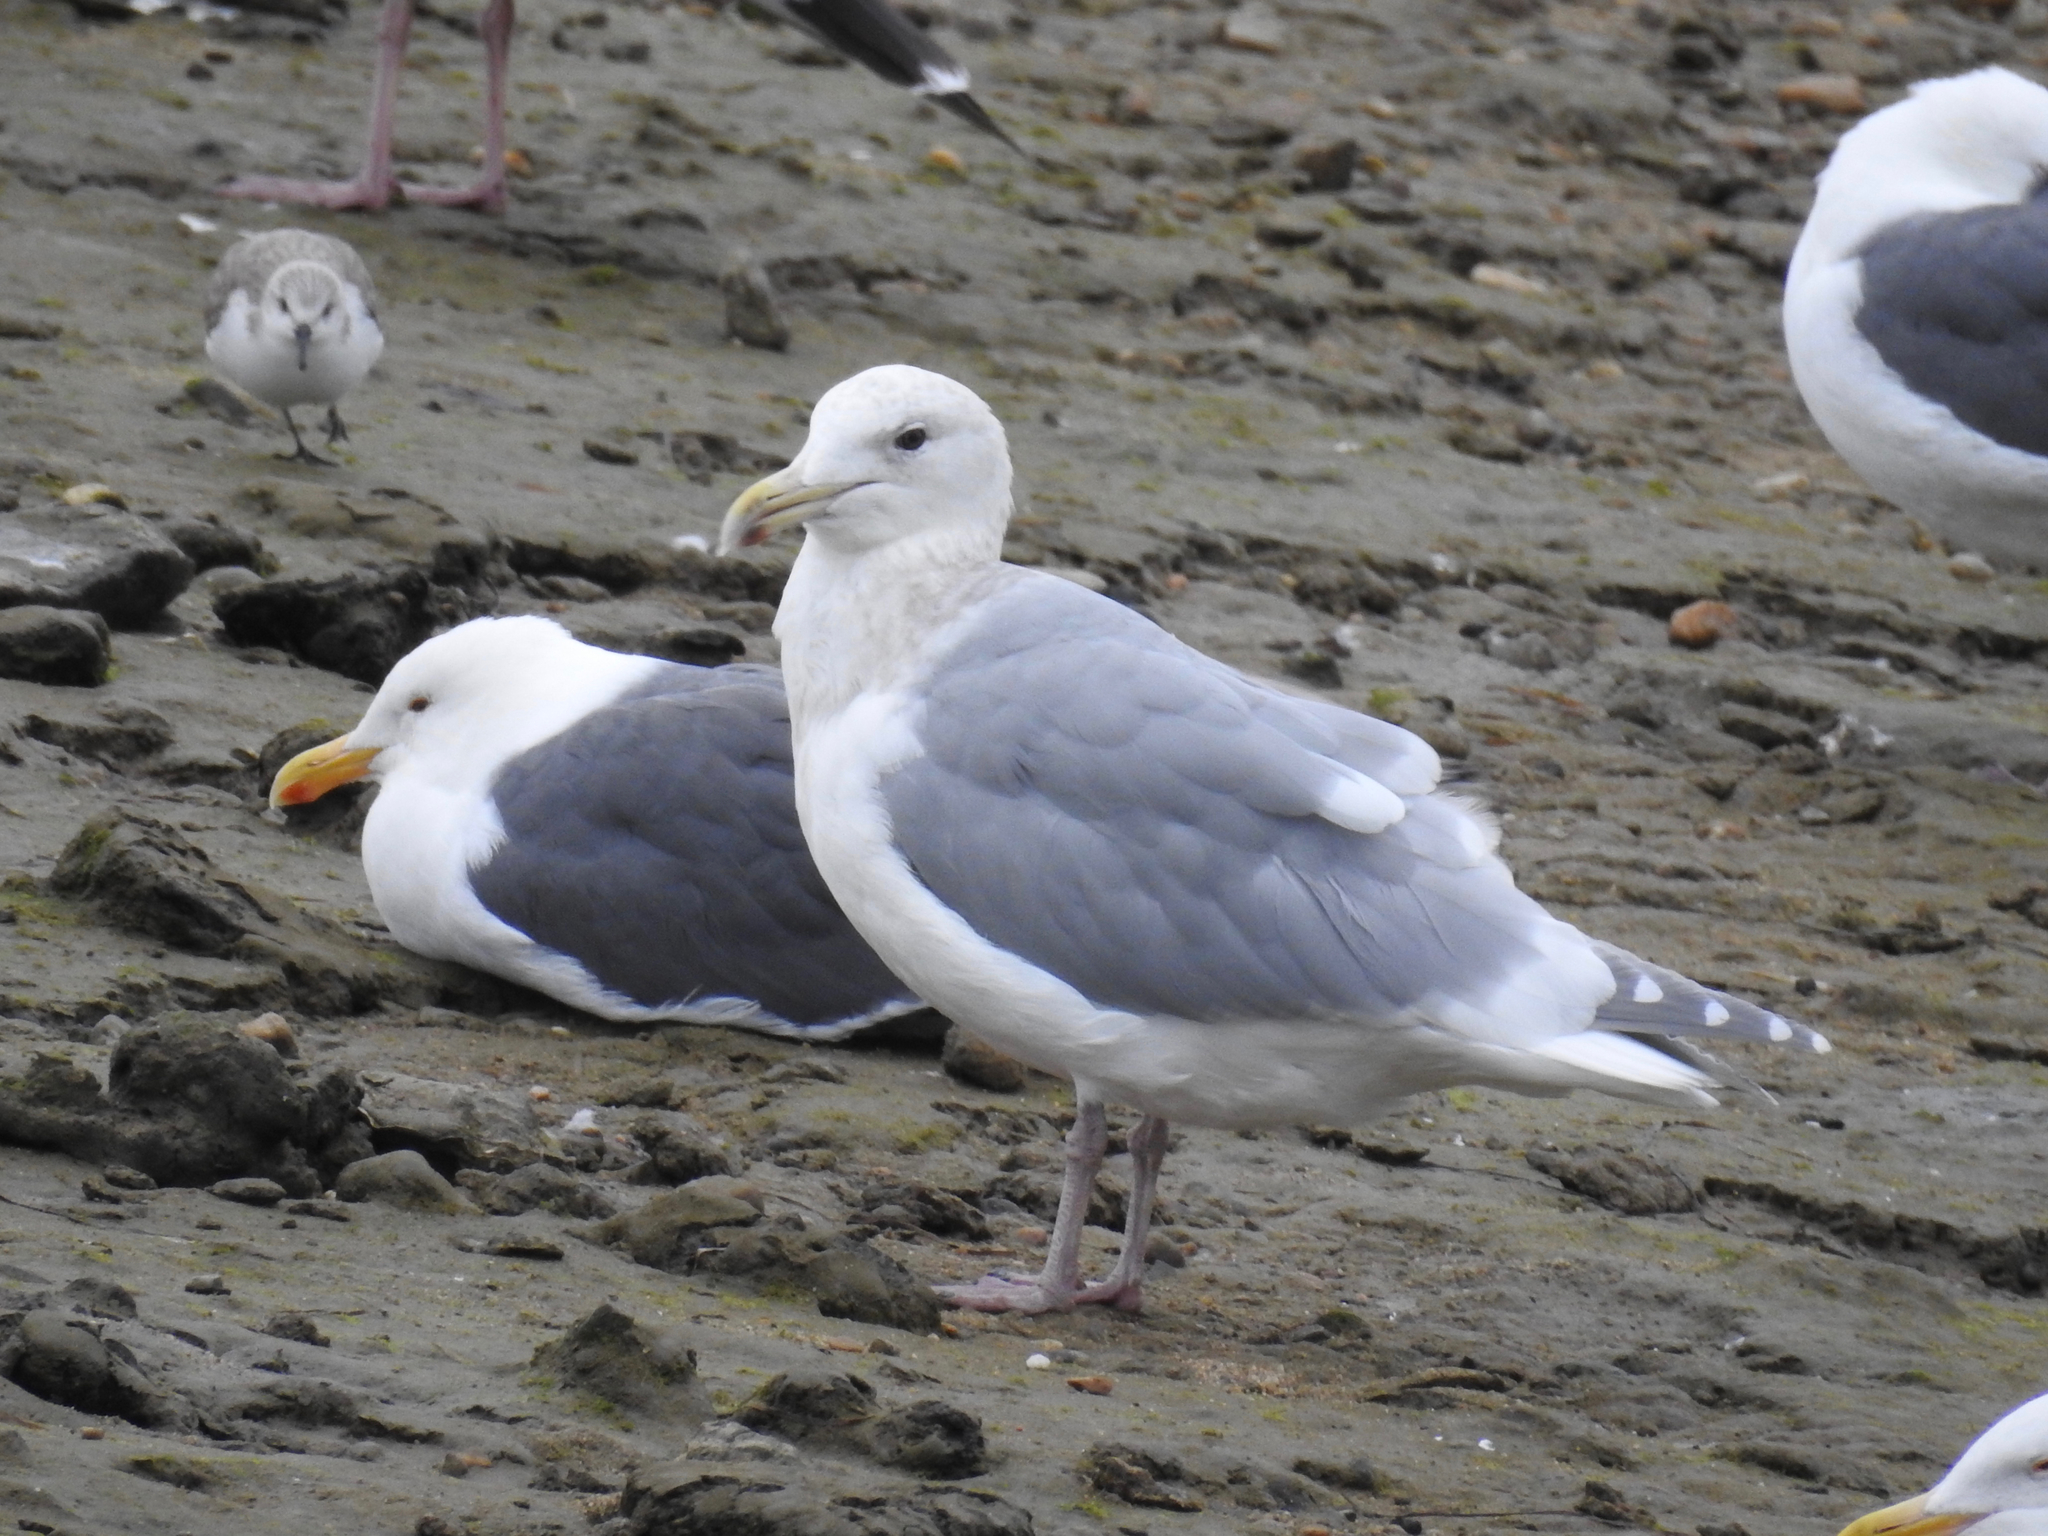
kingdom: Animalia
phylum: Chordata
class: Aves
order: Charadriiformes
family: Laridae
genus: Larus
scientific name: Larus glaucescens
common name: Glaucous-winged gull
